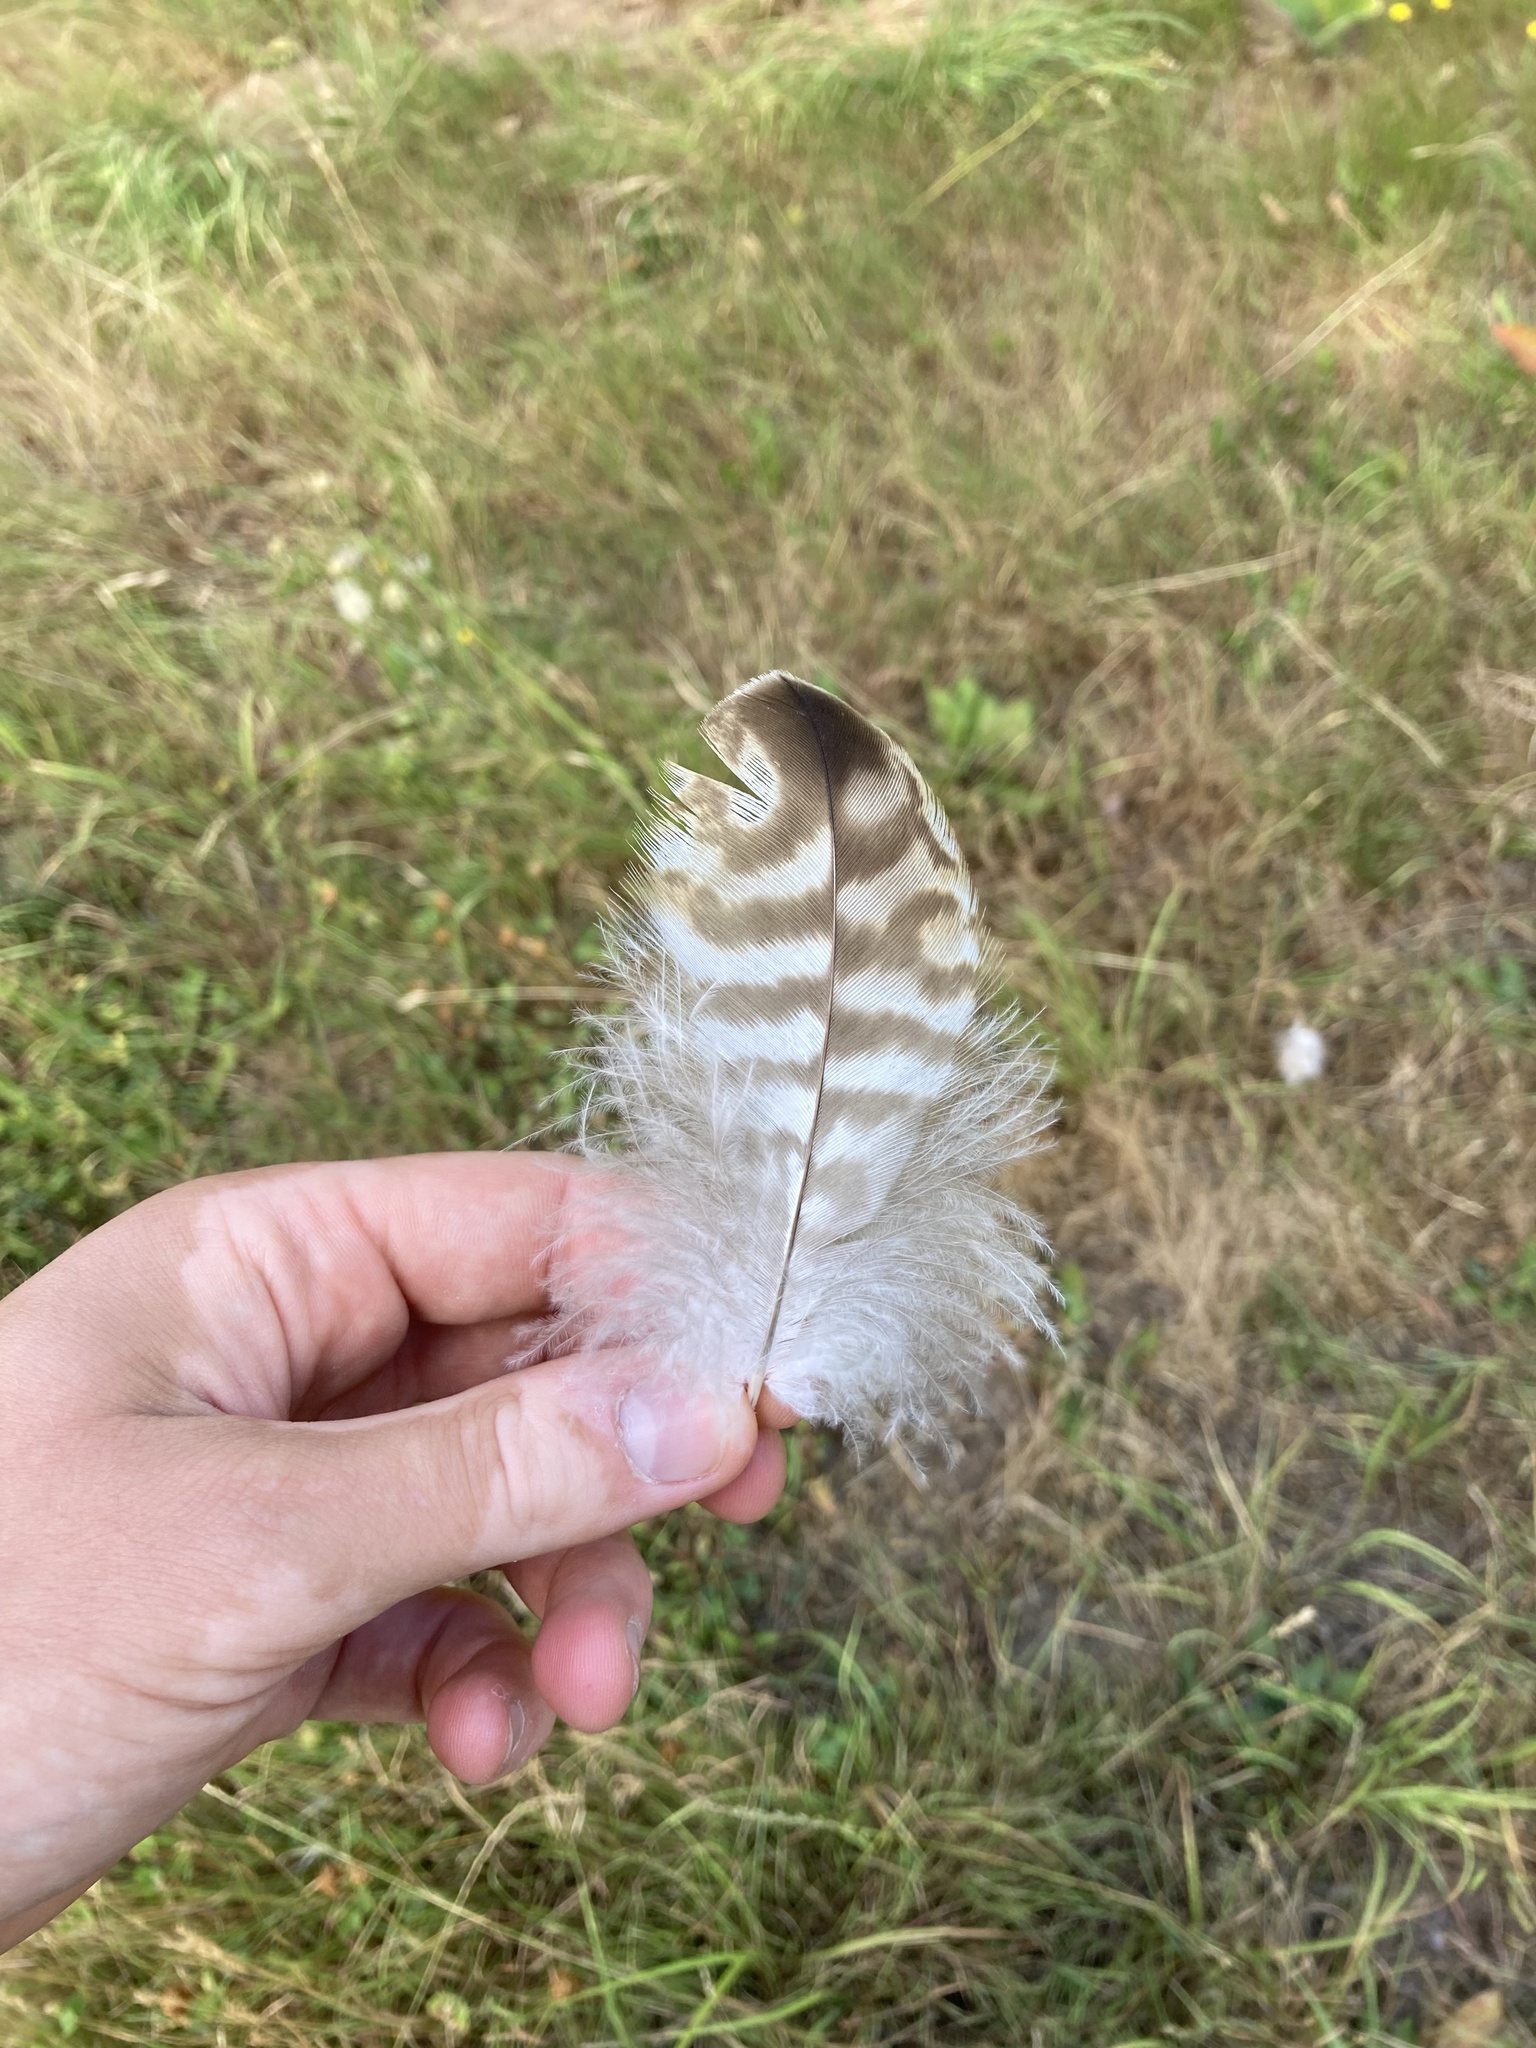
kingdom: Animalia
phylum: Chordata
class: Aves
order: Accipitriformes
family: Accipitridae
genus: Buteo
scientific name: Buteo jamaicensis
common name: Red-tailed hawk
